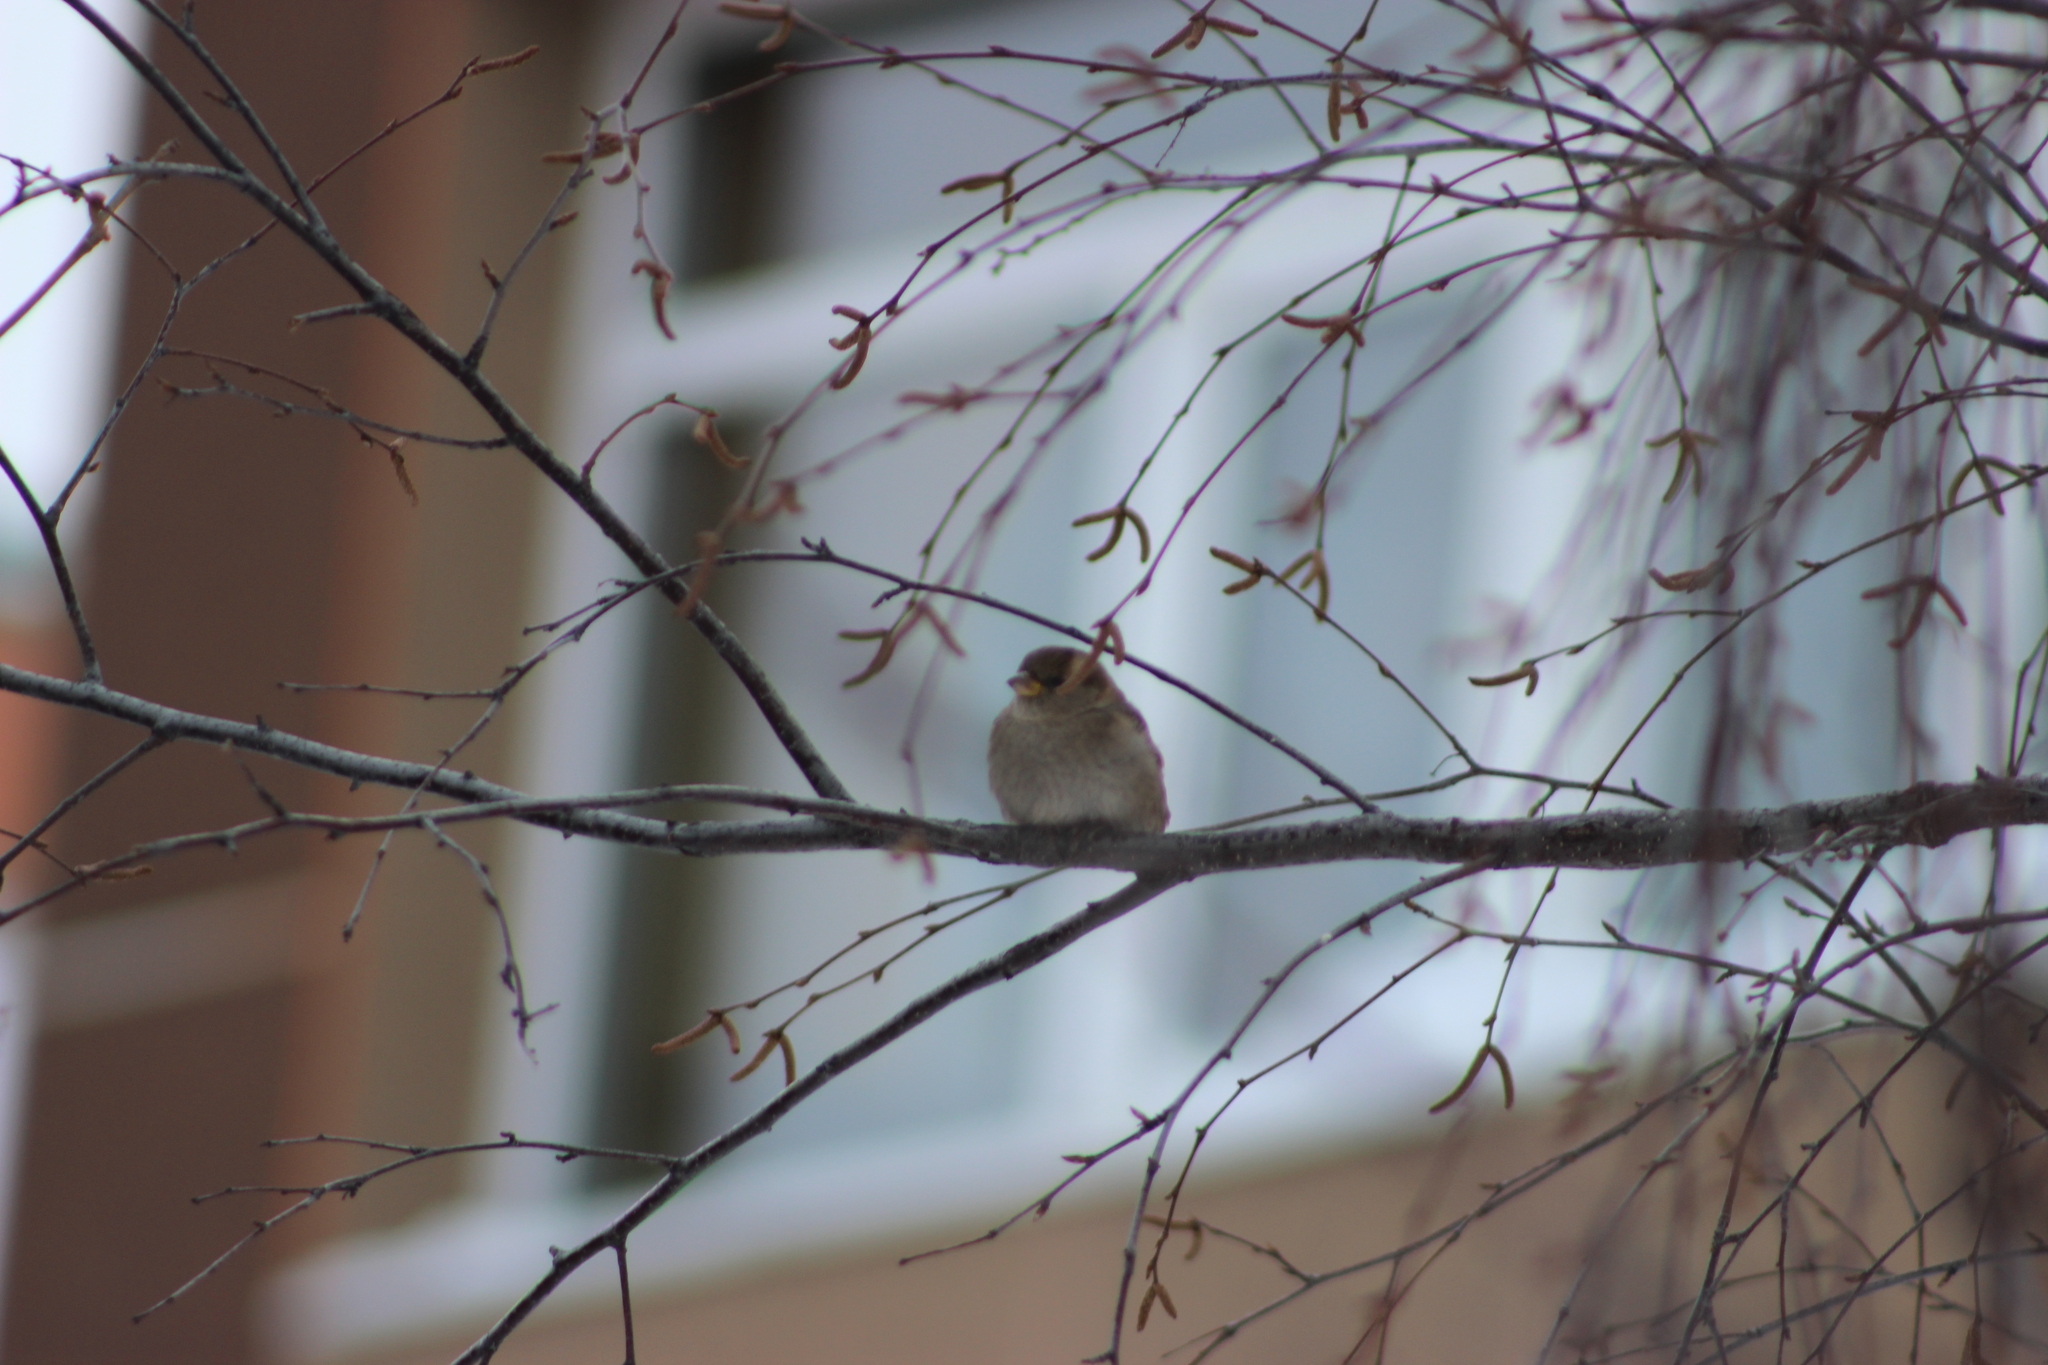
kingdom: Animalia
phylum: Chordata
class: Aves
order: Passeriformes
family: Passeridae
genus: Passer
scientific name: Passer domesticus
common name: House sparrow
